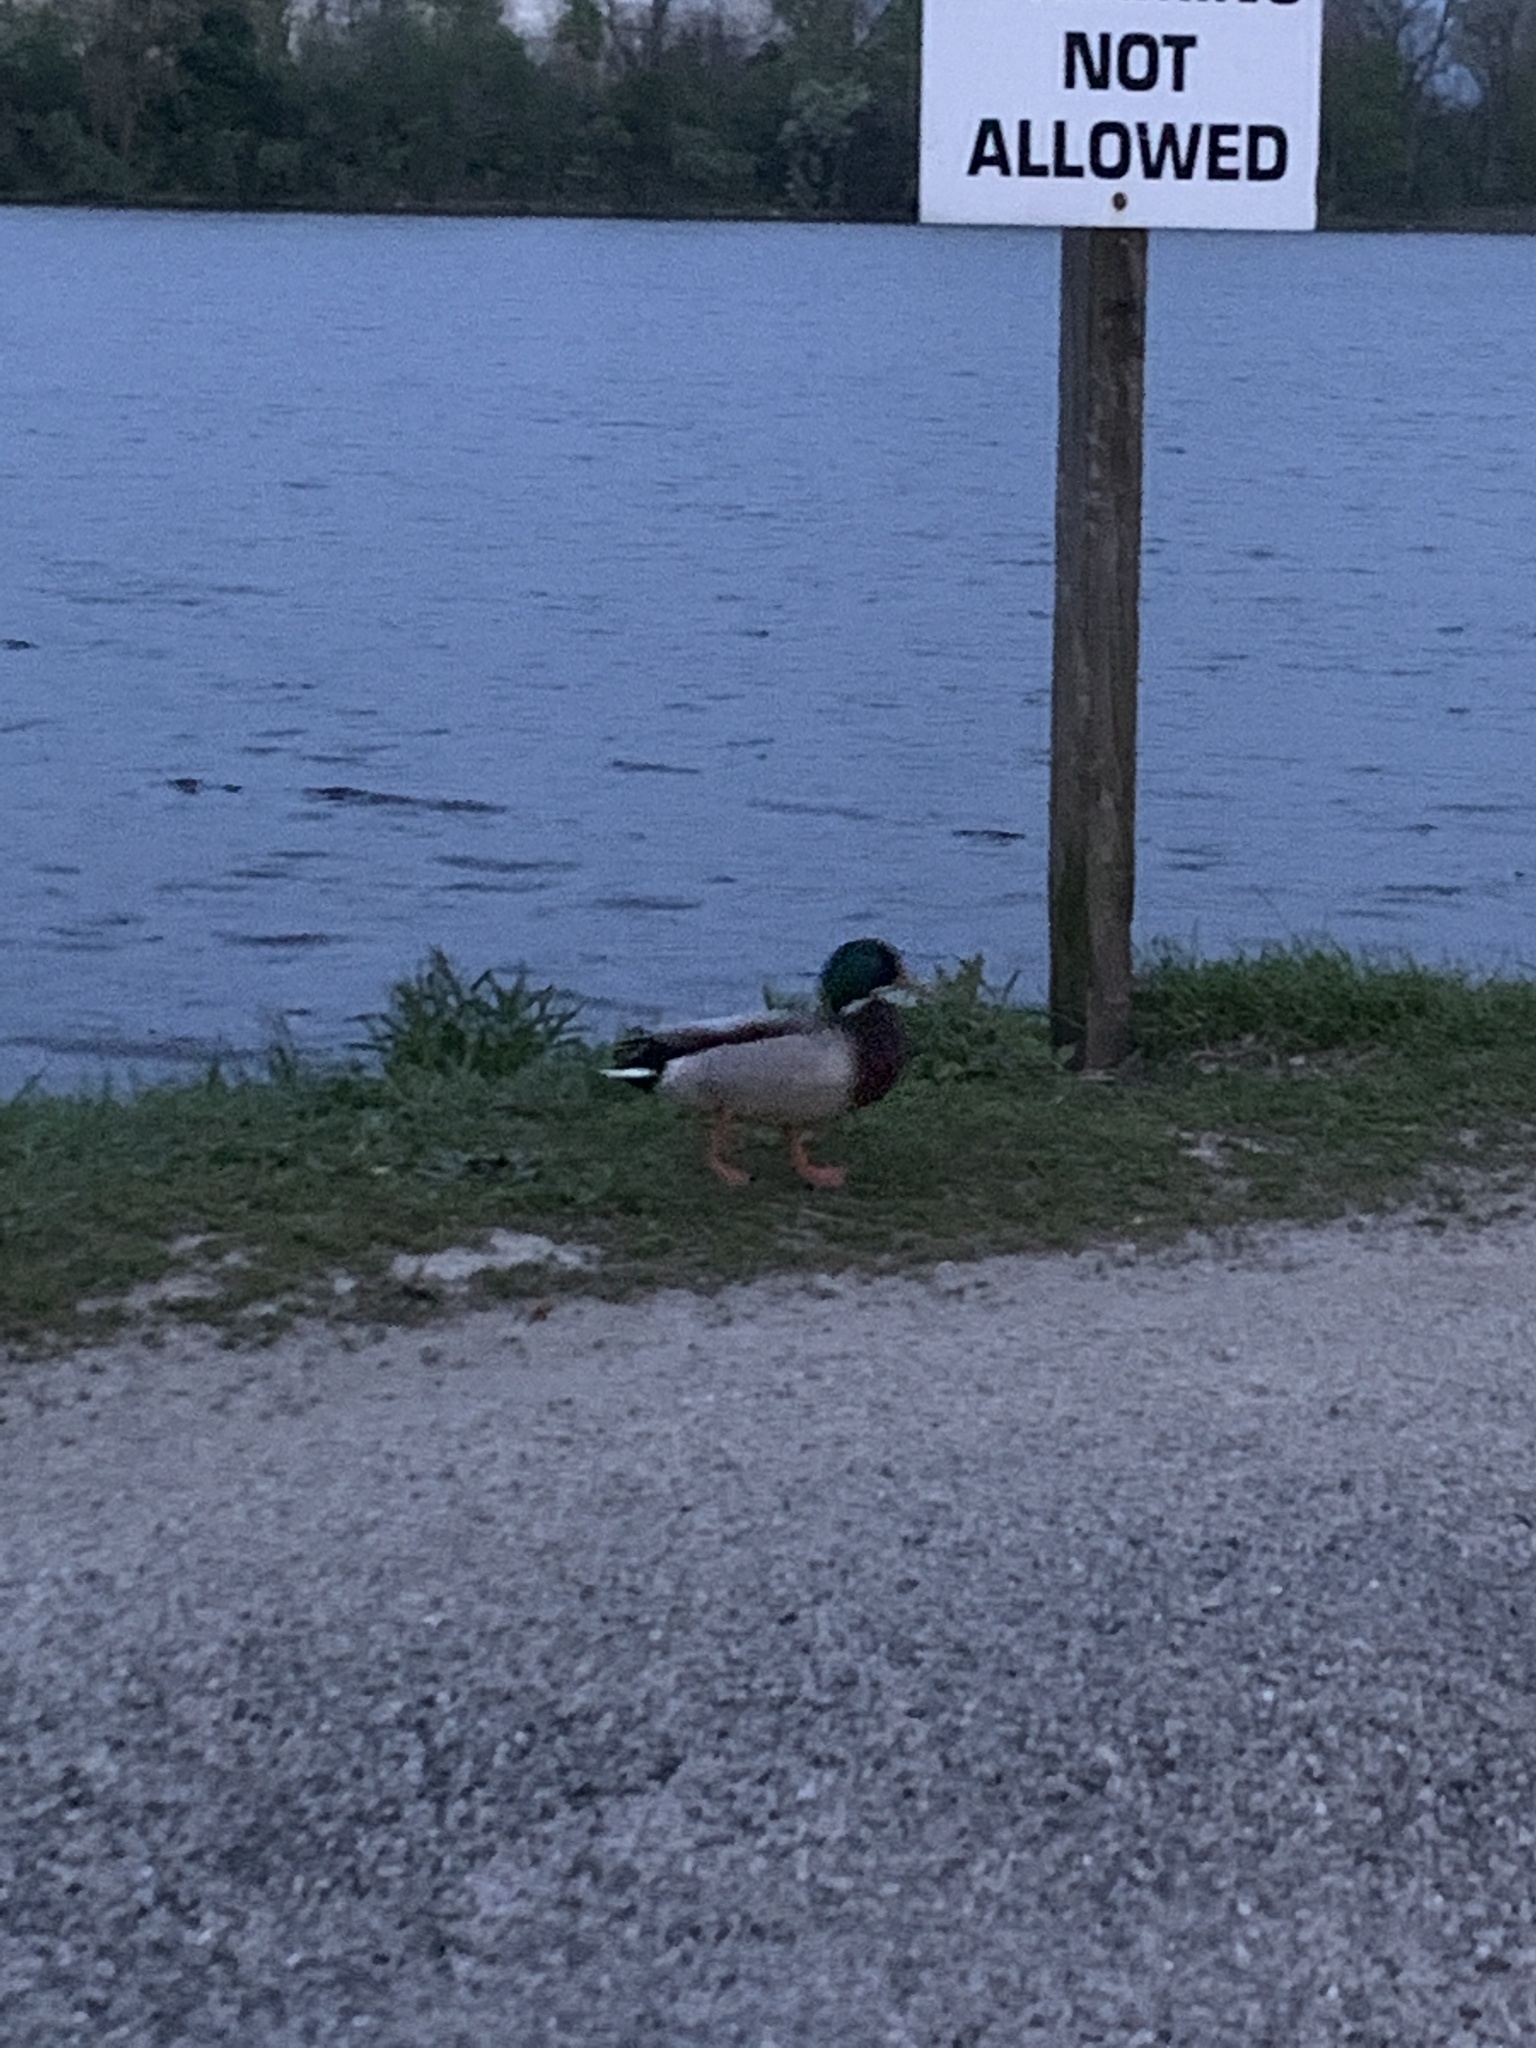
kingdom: Animalia
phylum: Chordata
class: Aves
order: Anseriformes
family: Anatidae
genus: Anas
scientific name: Anas platyrhynchos
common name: Mallard
